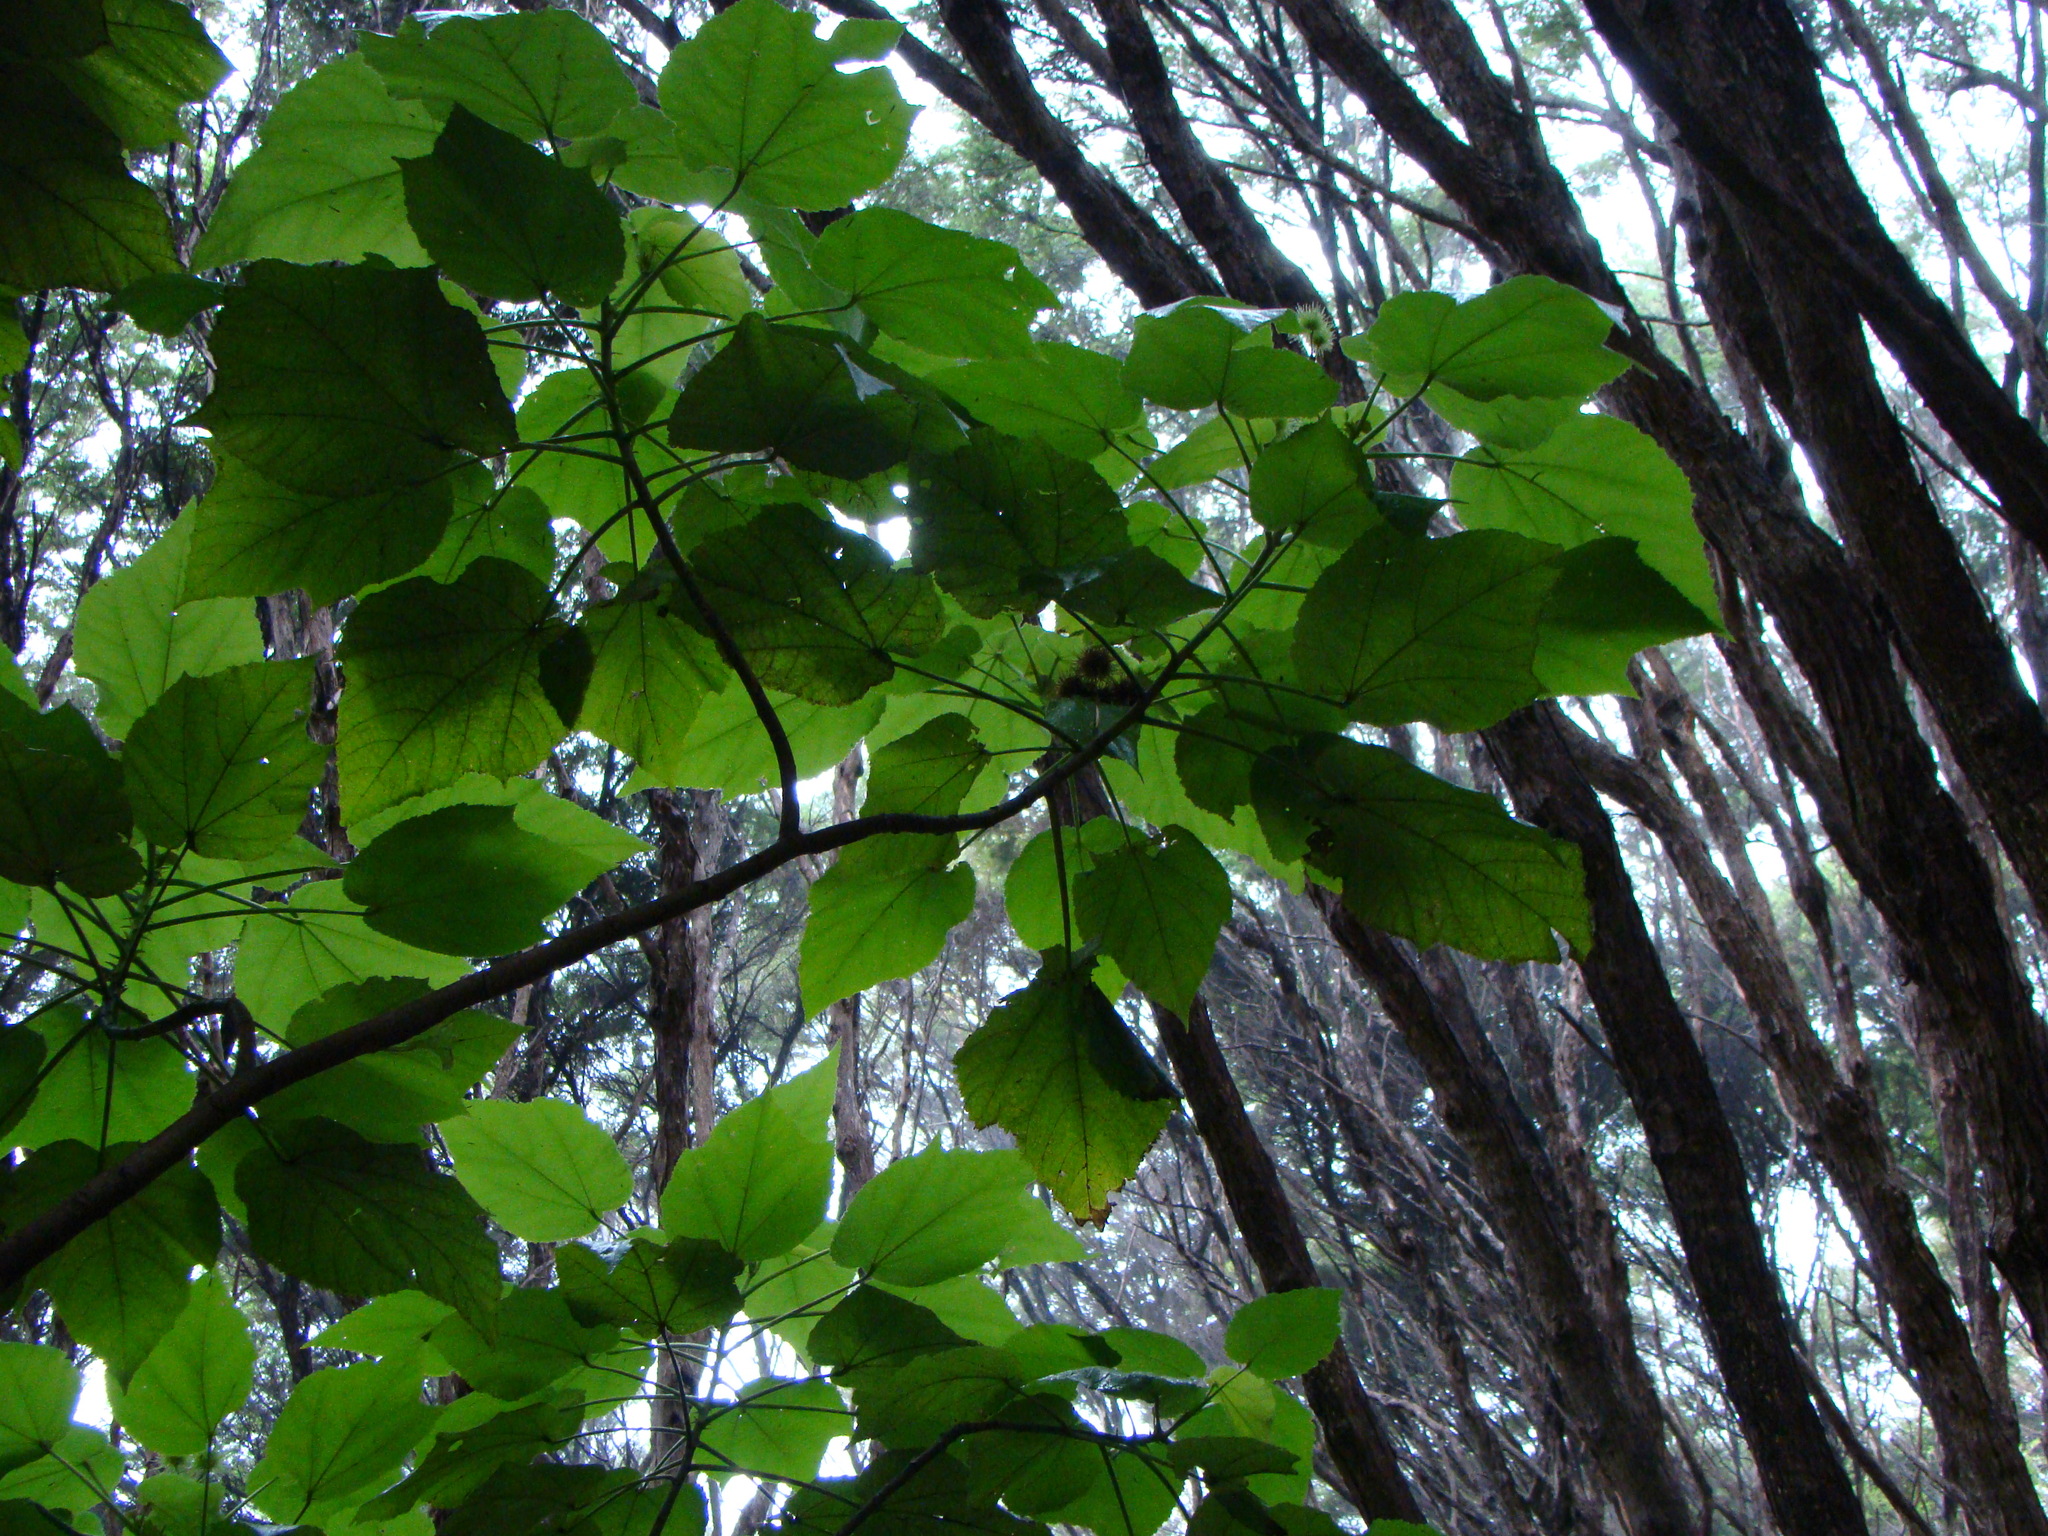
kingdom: Plantae
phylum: Tracheophyta
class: Magnoliopsida
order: Malvales
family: Malvaceae
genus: Entelea
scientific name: Entelea arborescens
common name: New zealand-mulberry
